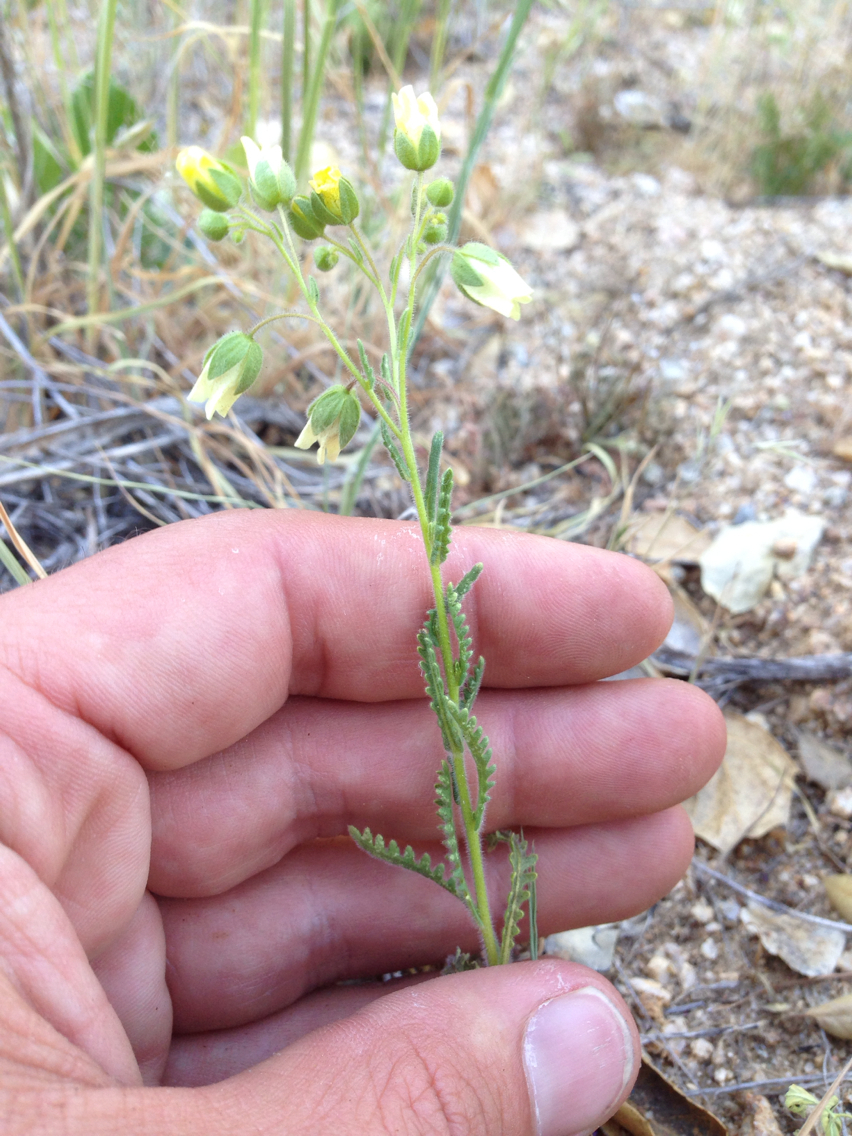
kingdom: Plantae
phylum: Tracheophyta
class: Magnoliopsida
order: Boraginales
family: Hydrophyllaceae
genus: Emmenanthe
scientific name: Emmenanthe penduliflora
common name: Whispering-bells
